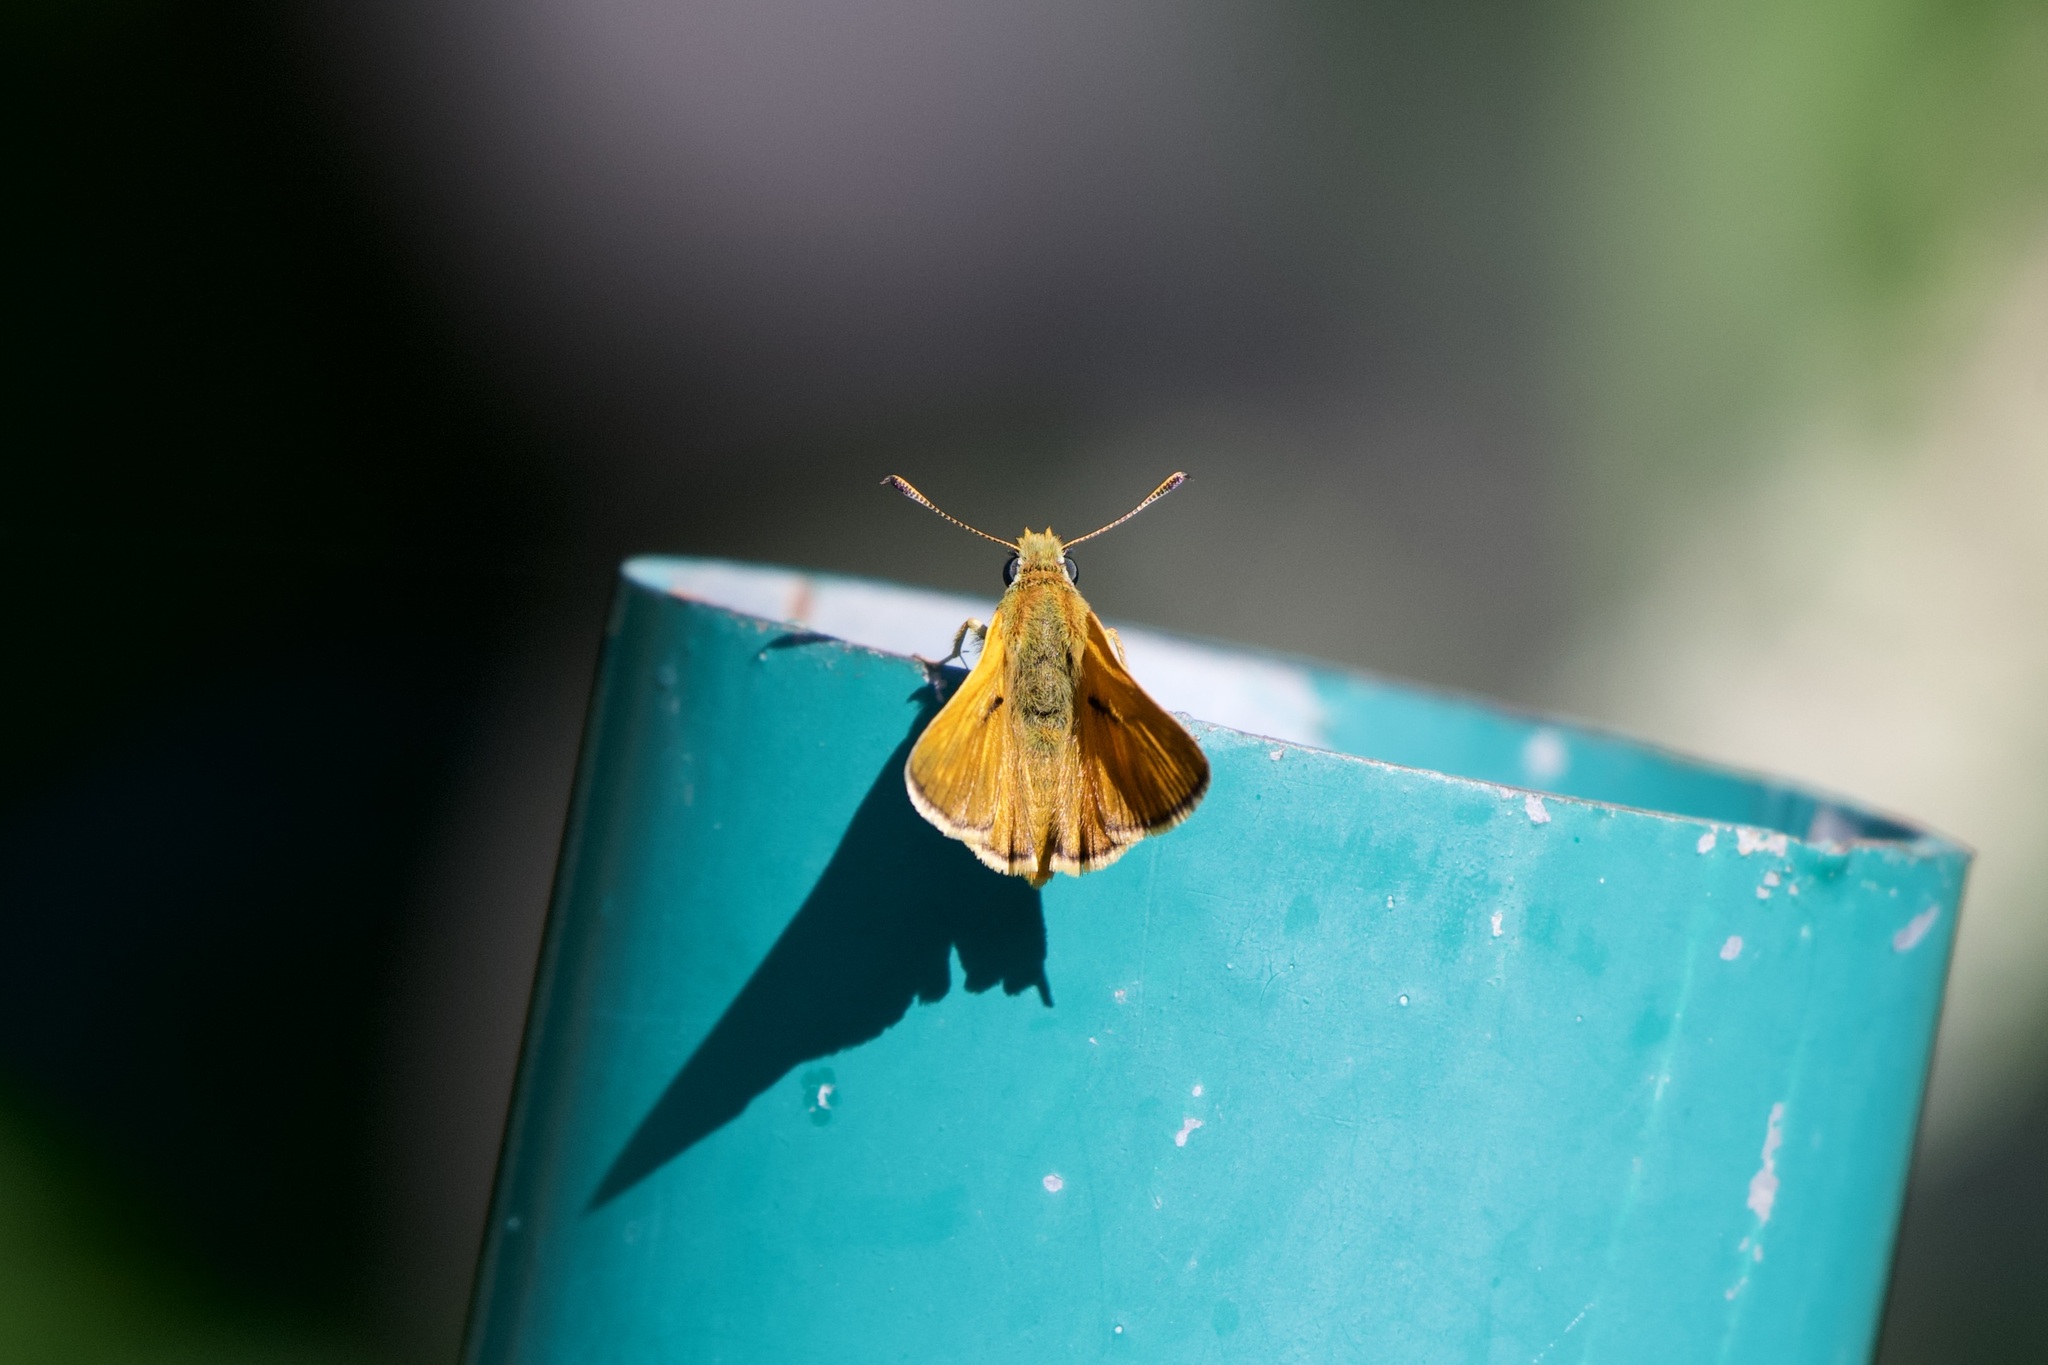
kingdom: Animalia
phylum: Arthropoda
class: Insecta
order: Lepidoptera
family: Hesperiidae
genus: Ochlodes
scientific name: Ochlodes venata
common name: Large skipper
